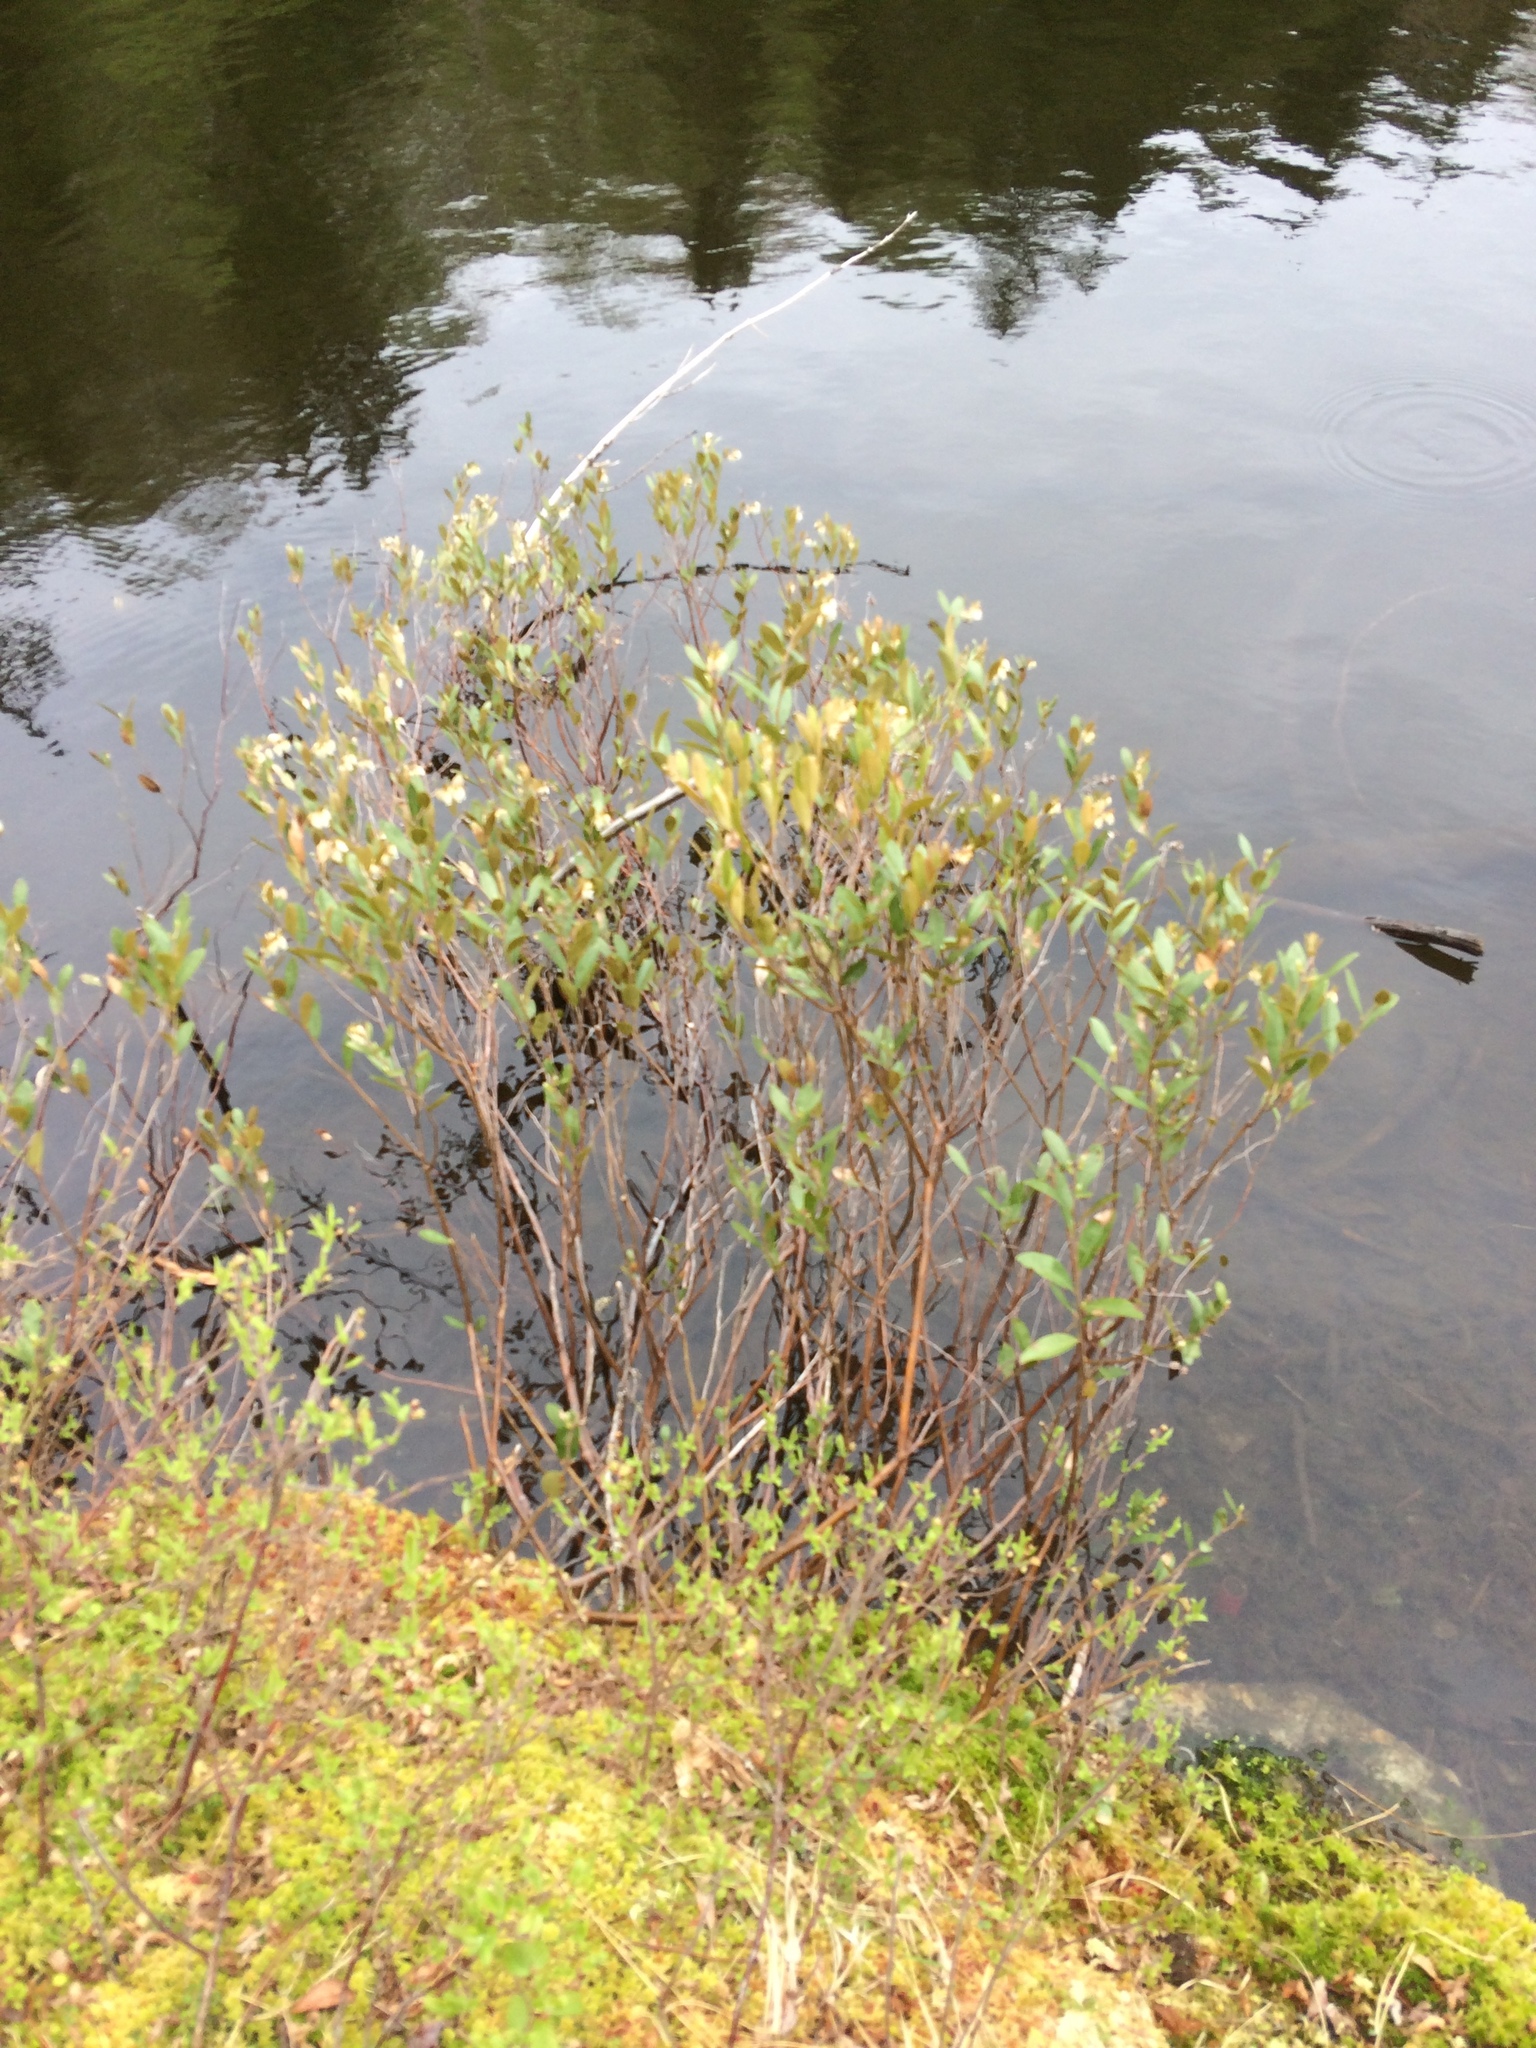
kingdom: Plantae
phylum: Tracheophyta
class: Magnoliopsida
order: Ericales
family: Ericaceae
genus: Chamaedaphne
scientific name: Chamaedaphne calyculata
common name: Leatherleaf
